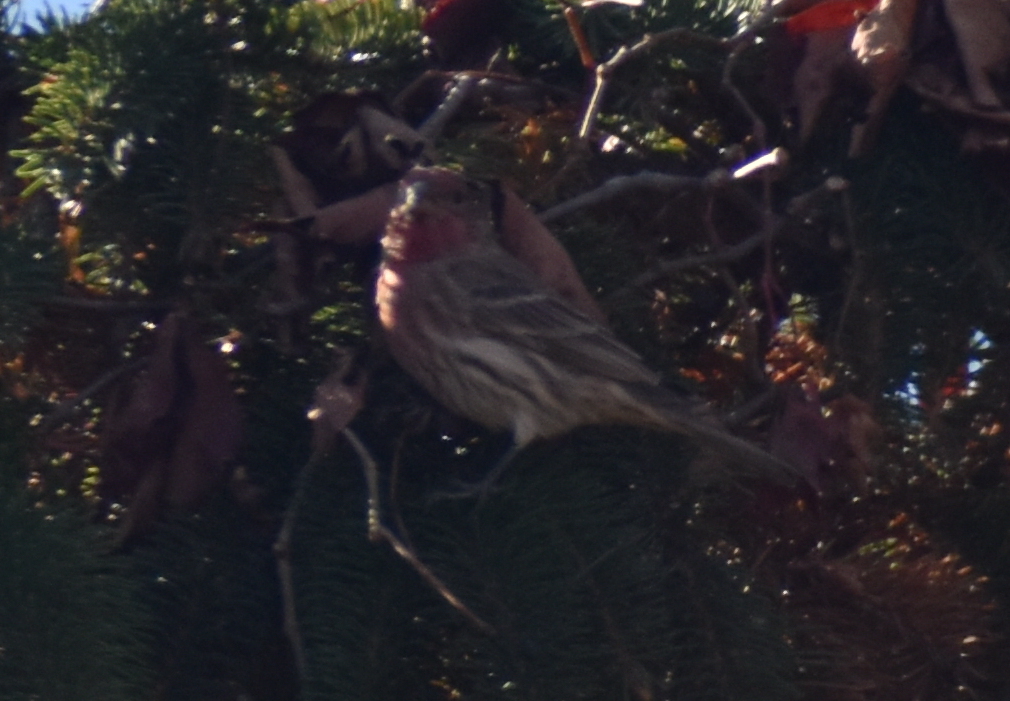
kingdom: Animalia
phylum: Chordata
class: Aves
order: Passeriformes
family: Fringillidae
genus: Haemorhous
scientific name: Haemorhous mexicanus
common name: House finch
